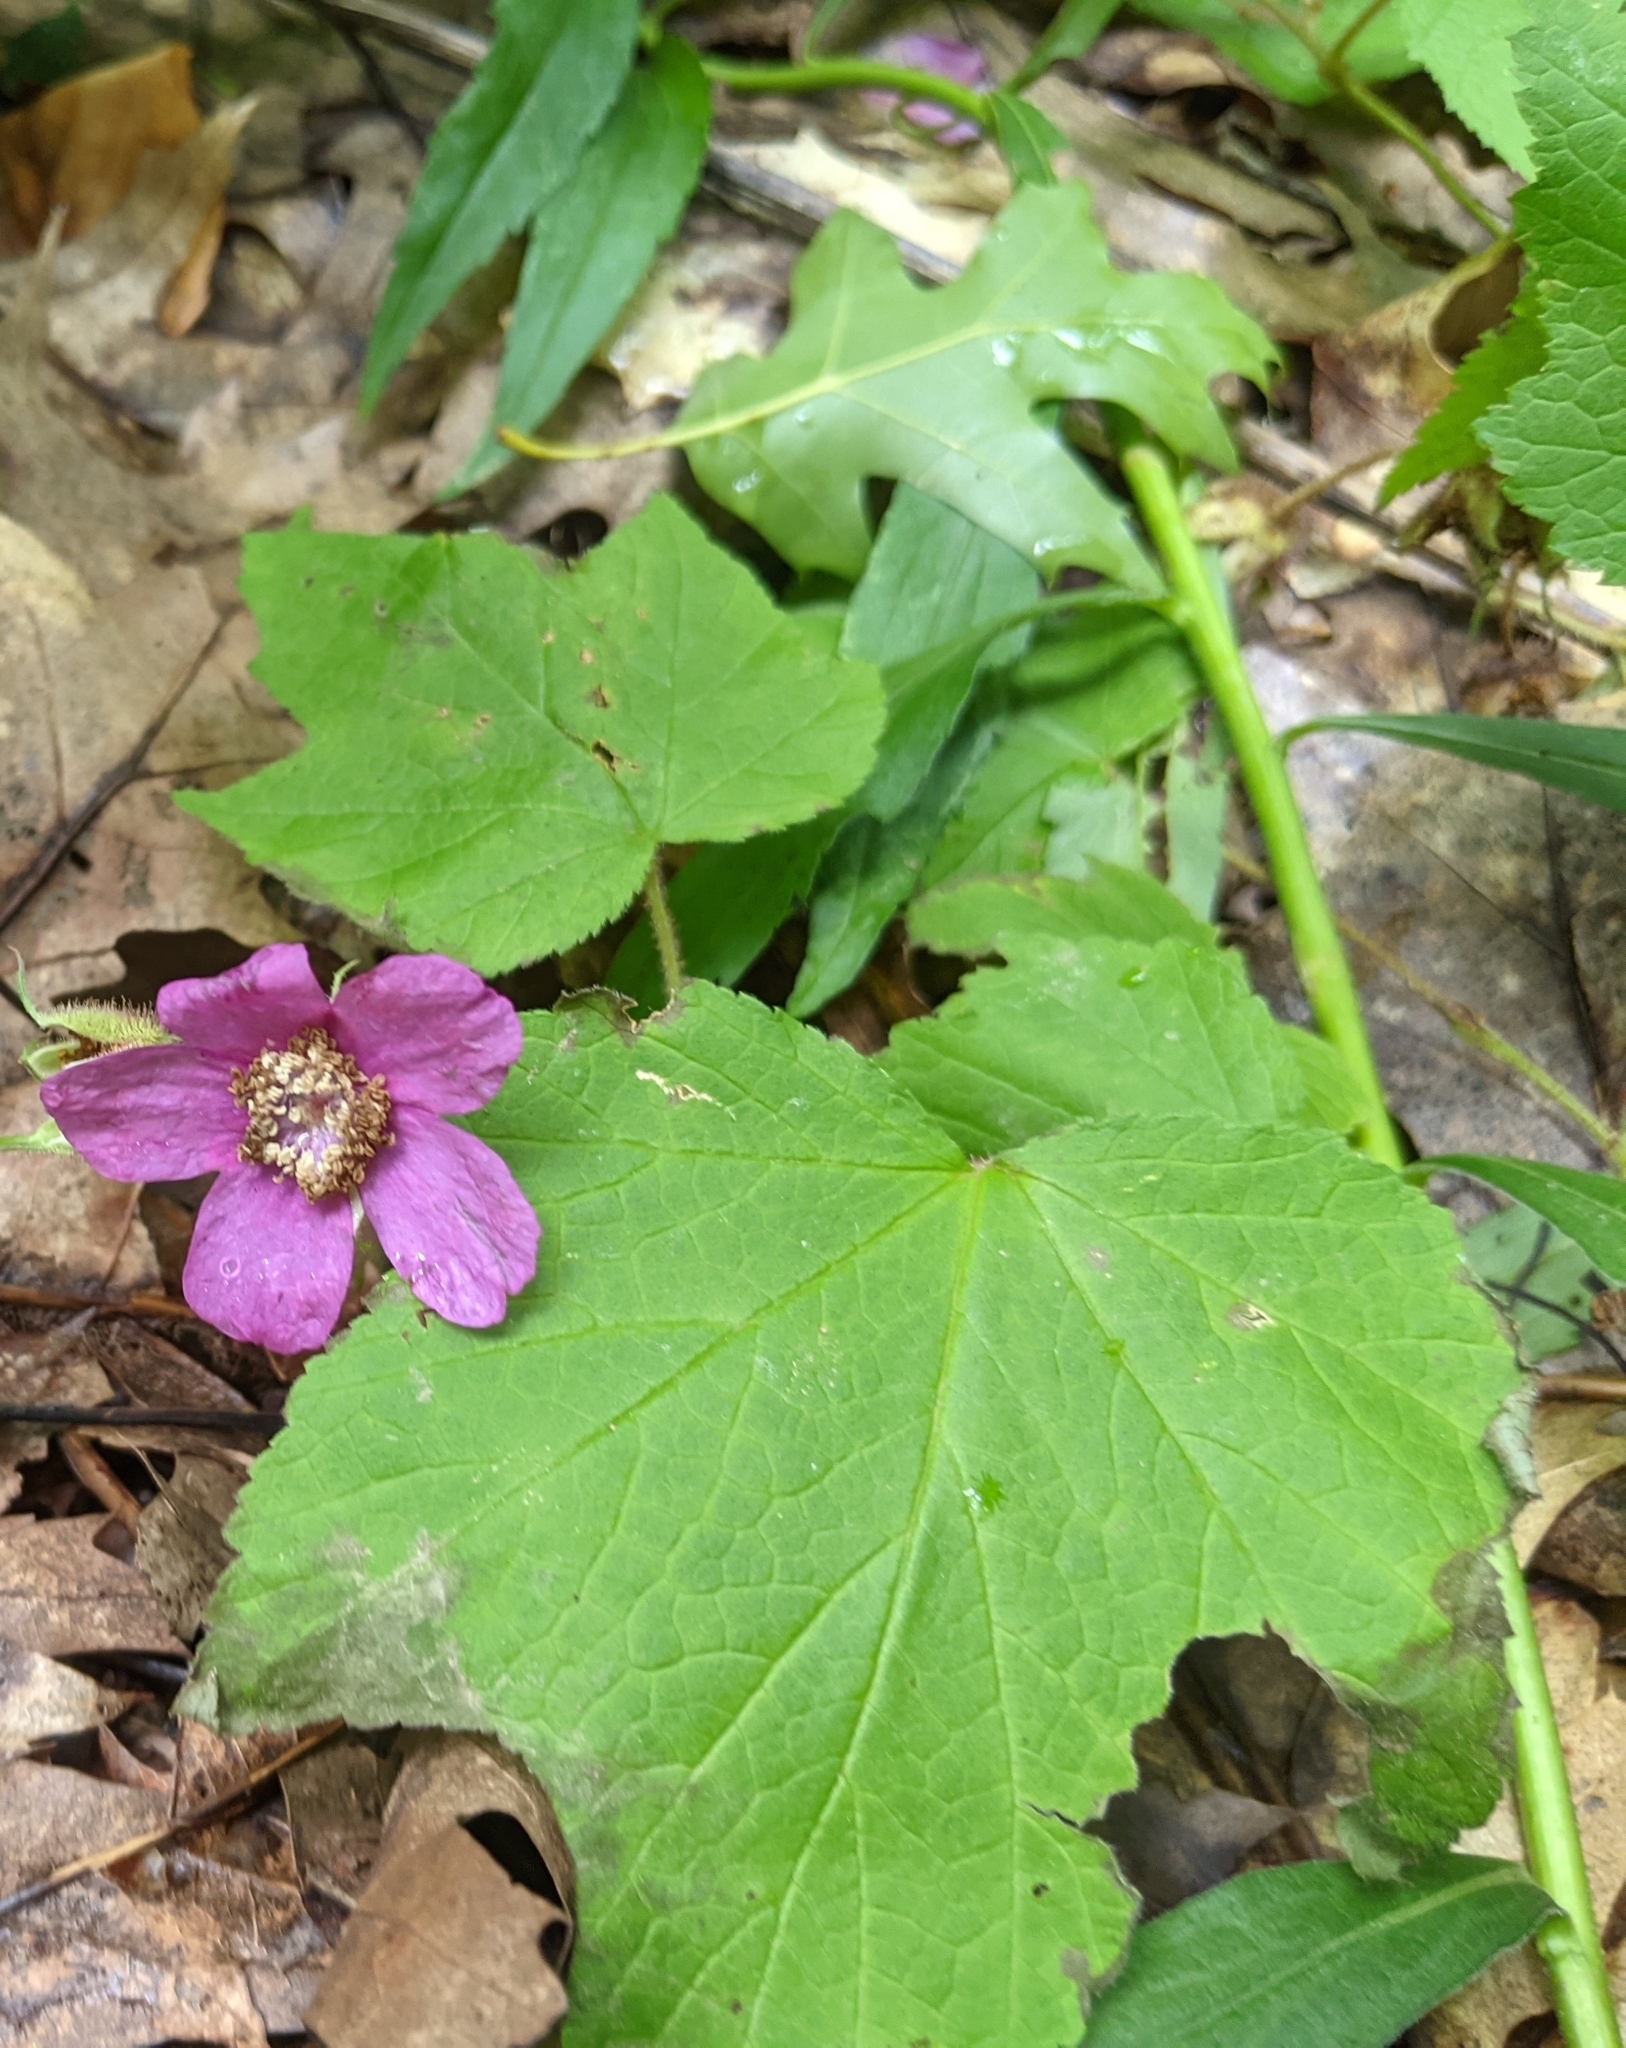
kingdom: Plantae
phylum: Tracheophyta
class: Magnoliopsida
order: Rosales
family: Rosaceae
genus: Rubus
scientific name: Rubus odoratus
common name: Purple-flowered raspberry
